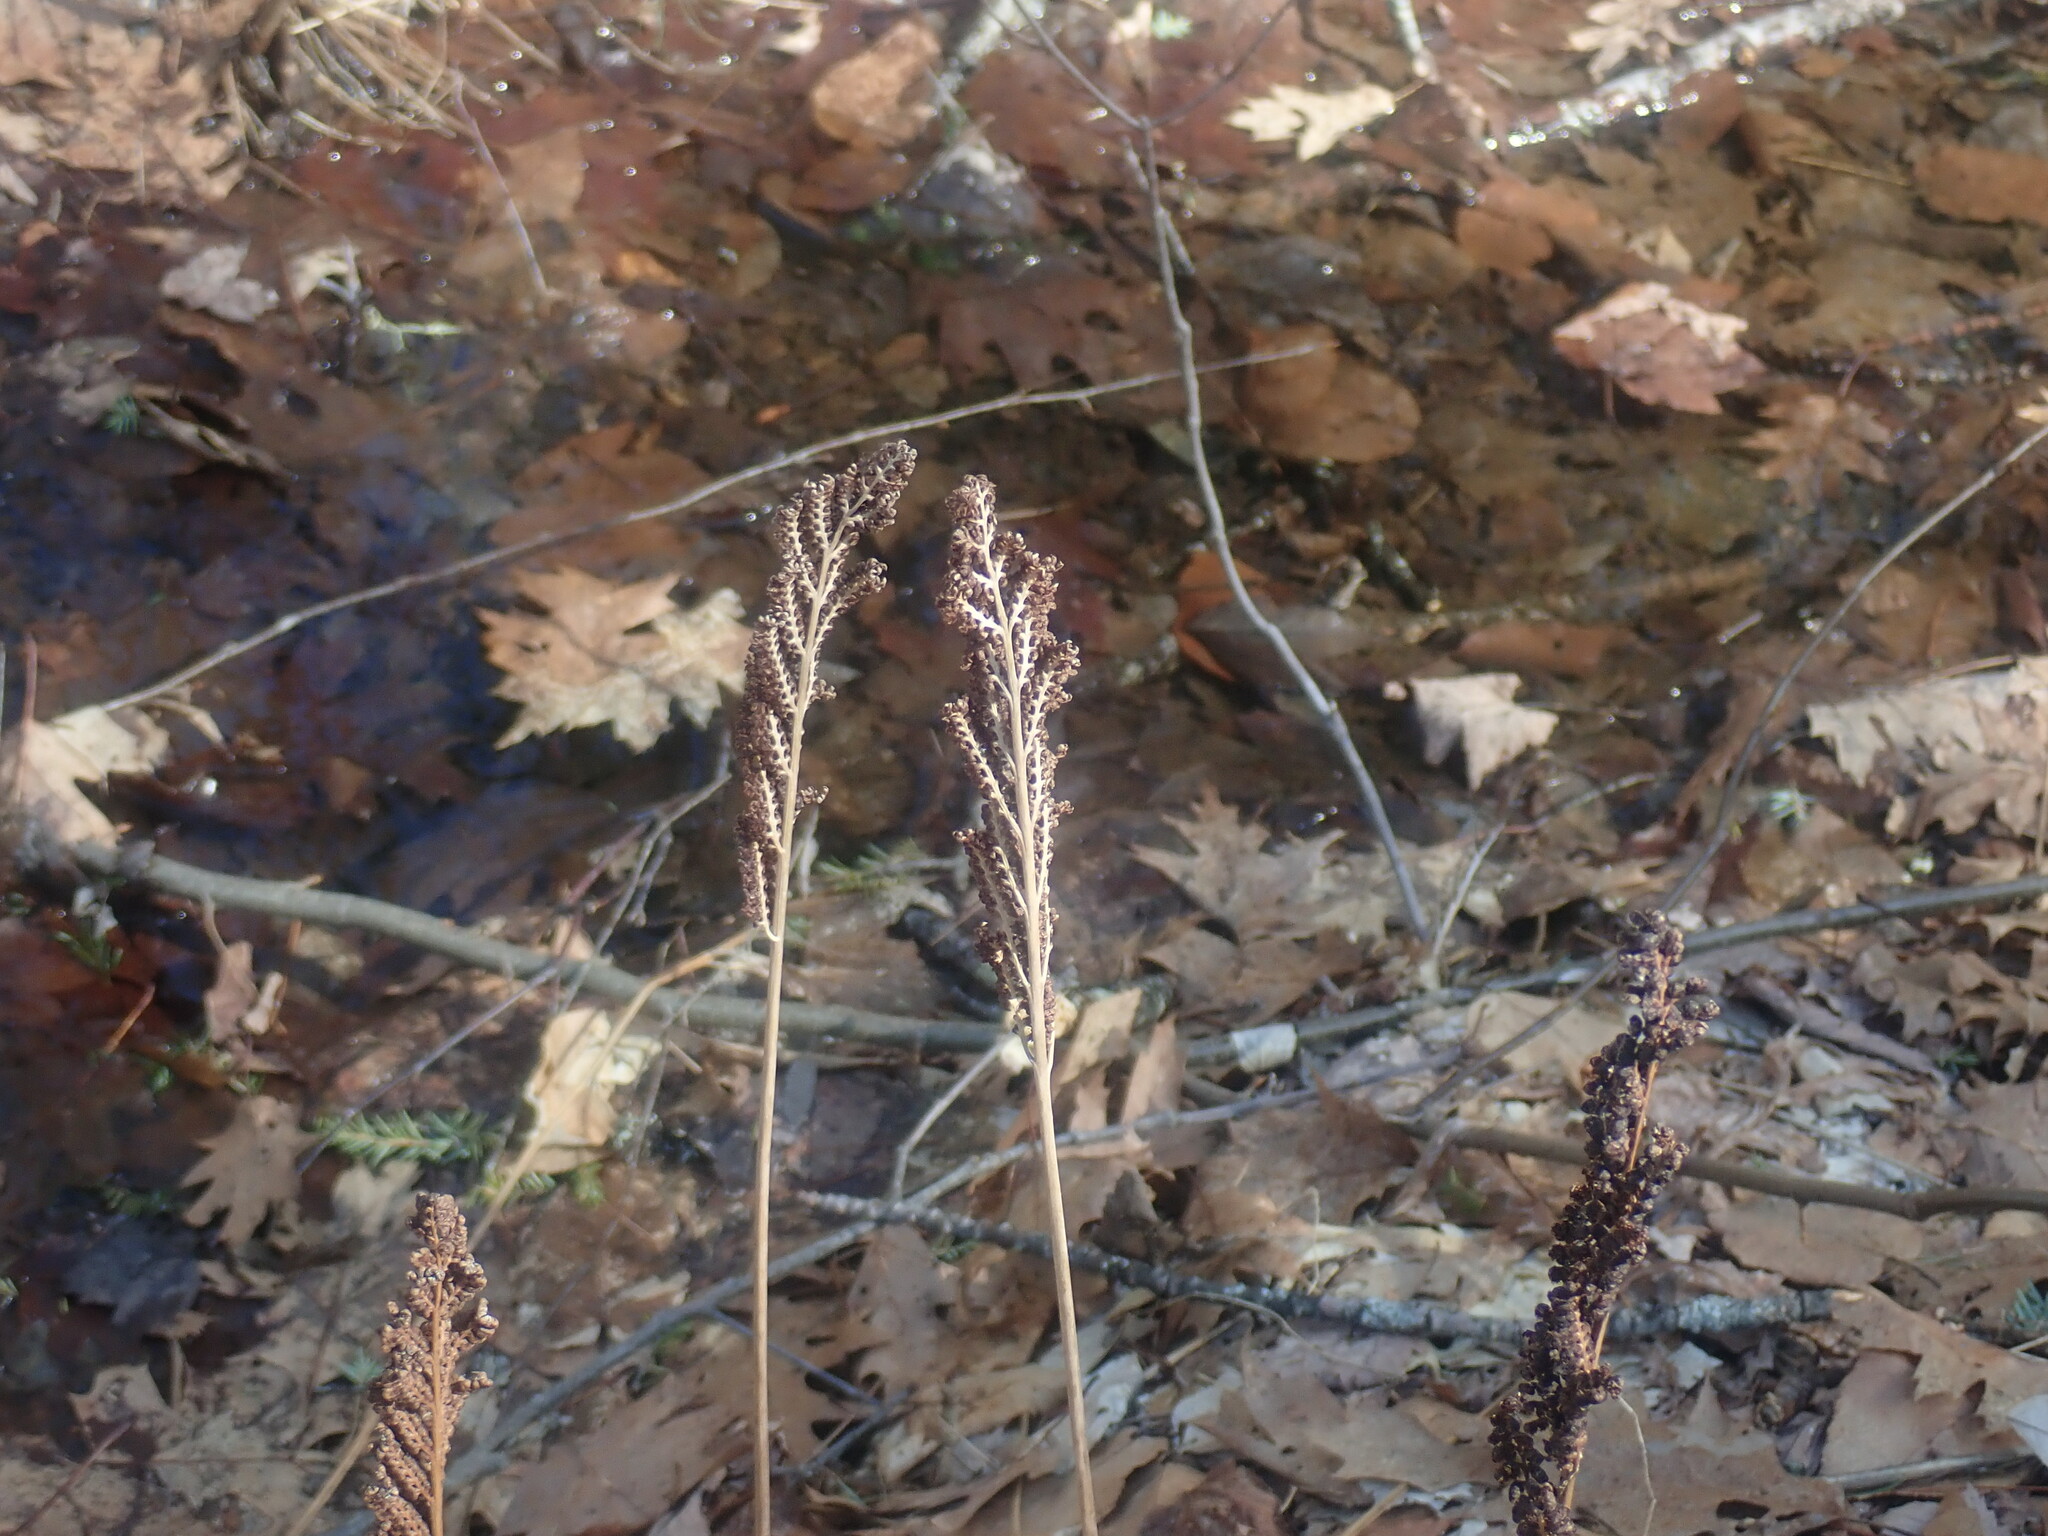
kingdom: Plantae
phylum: Tracheophyta
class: Polypodiopsida
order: Polypodiales
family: Onocleaceae
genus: Onoclea
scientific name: Onoclea sensibilis
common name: Sensitive fern
